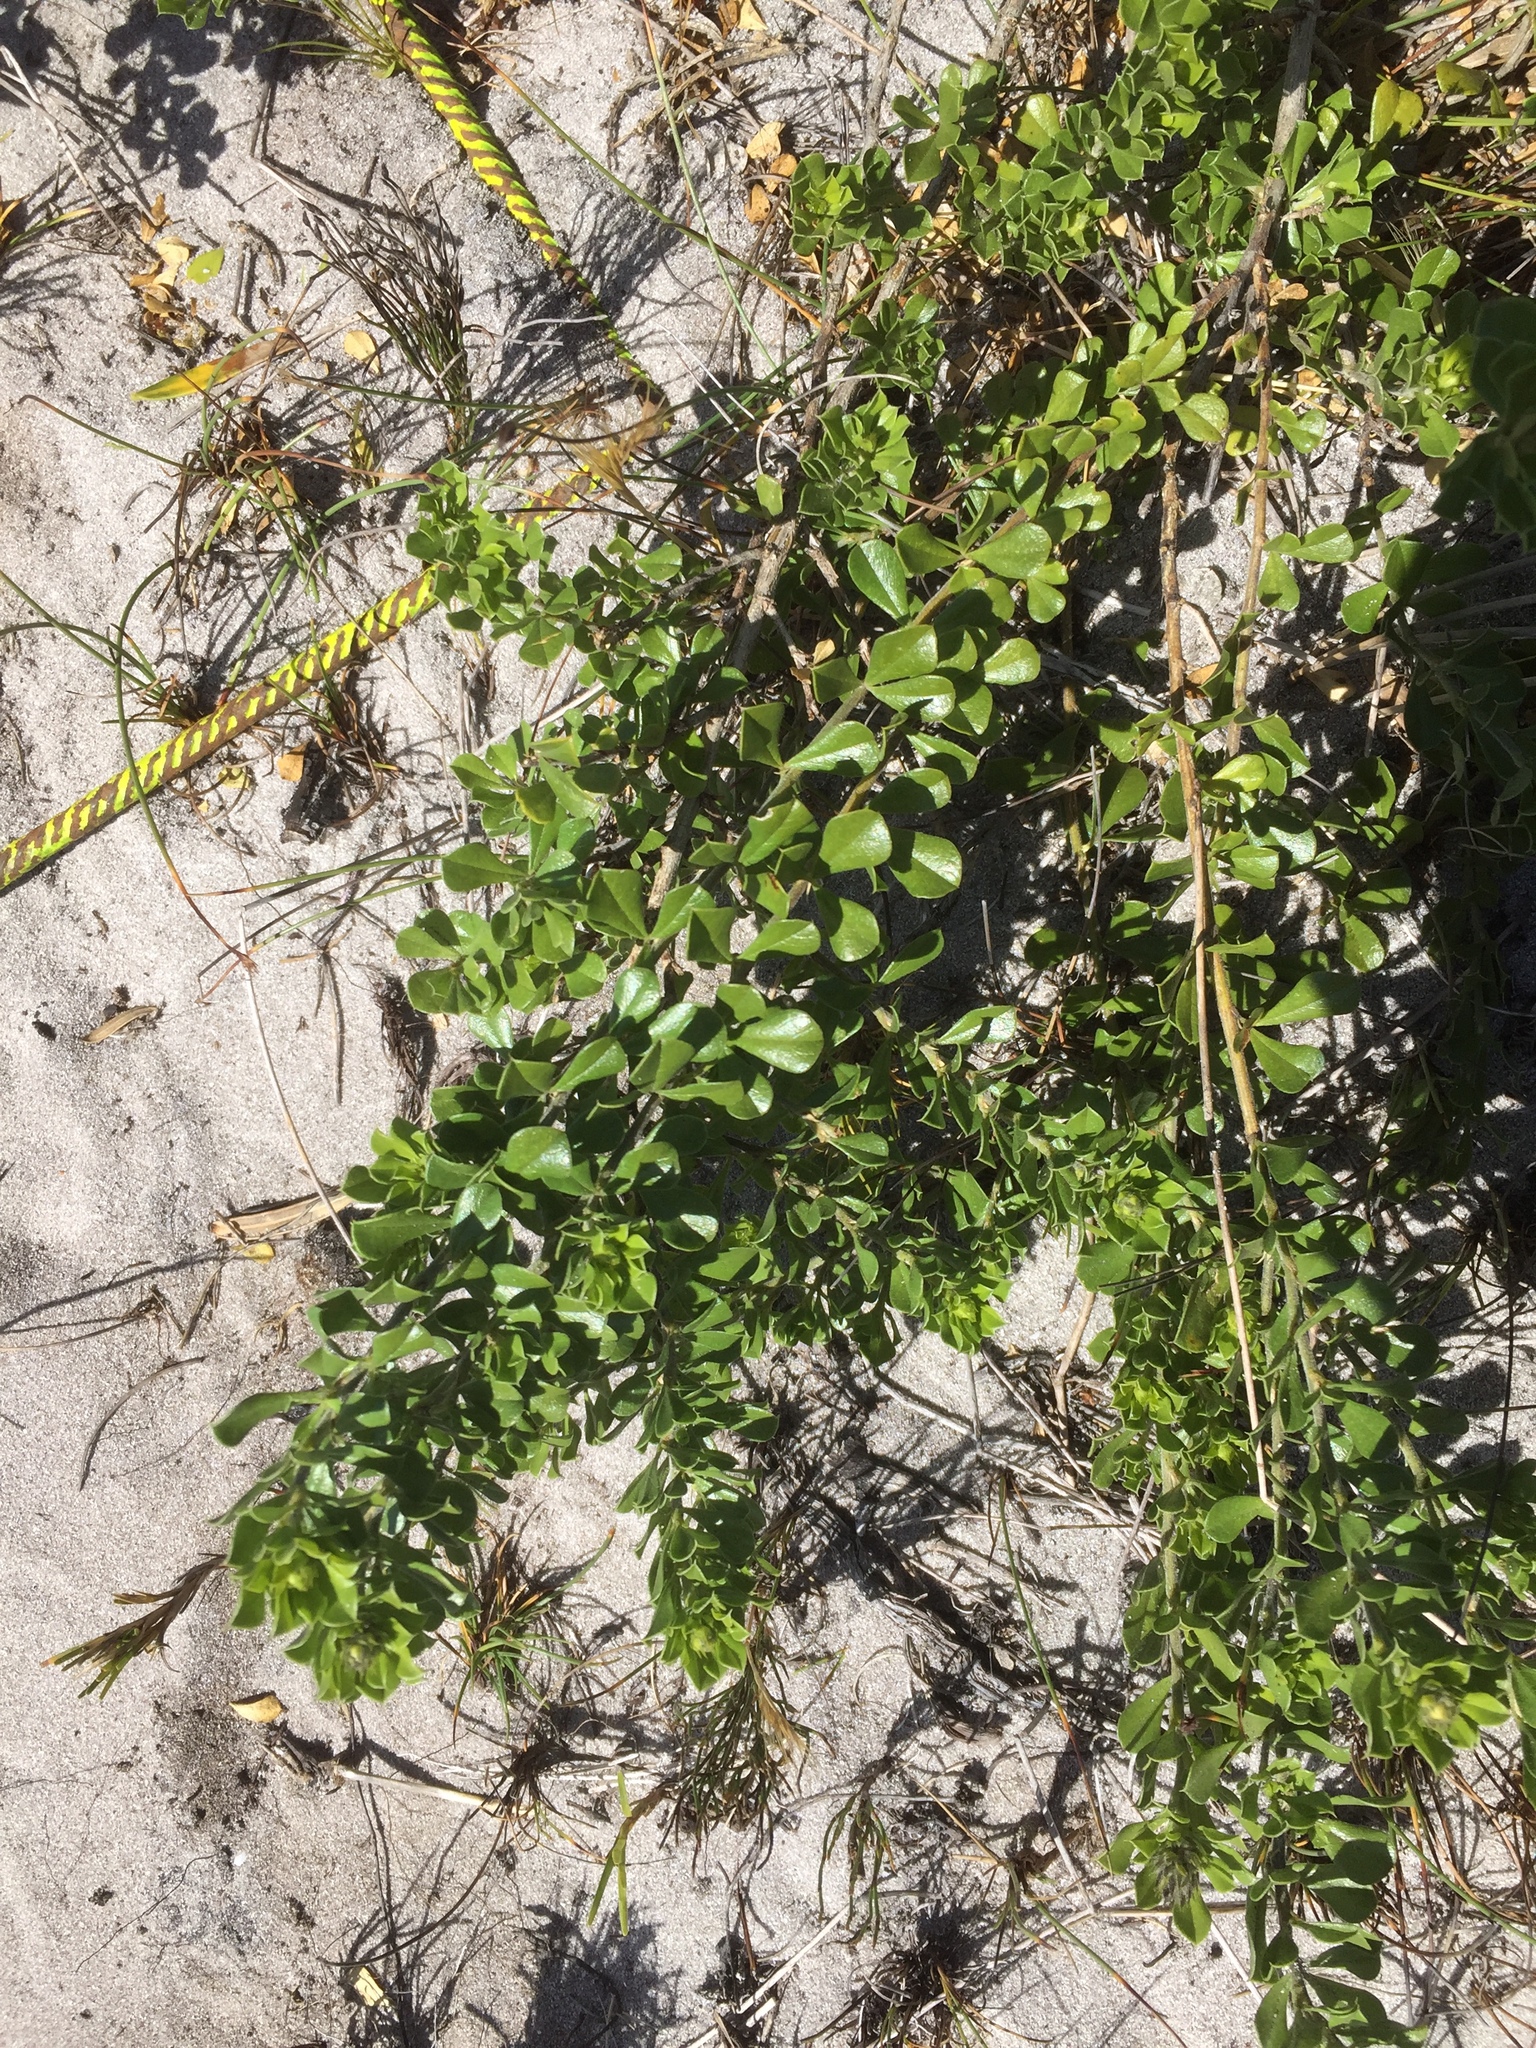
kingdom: Plantae
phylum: Tracheophyta
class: Magnoliopsida
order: Fabales
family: Fabaceae
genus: Psoralea
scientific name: Psoralea fruticans
